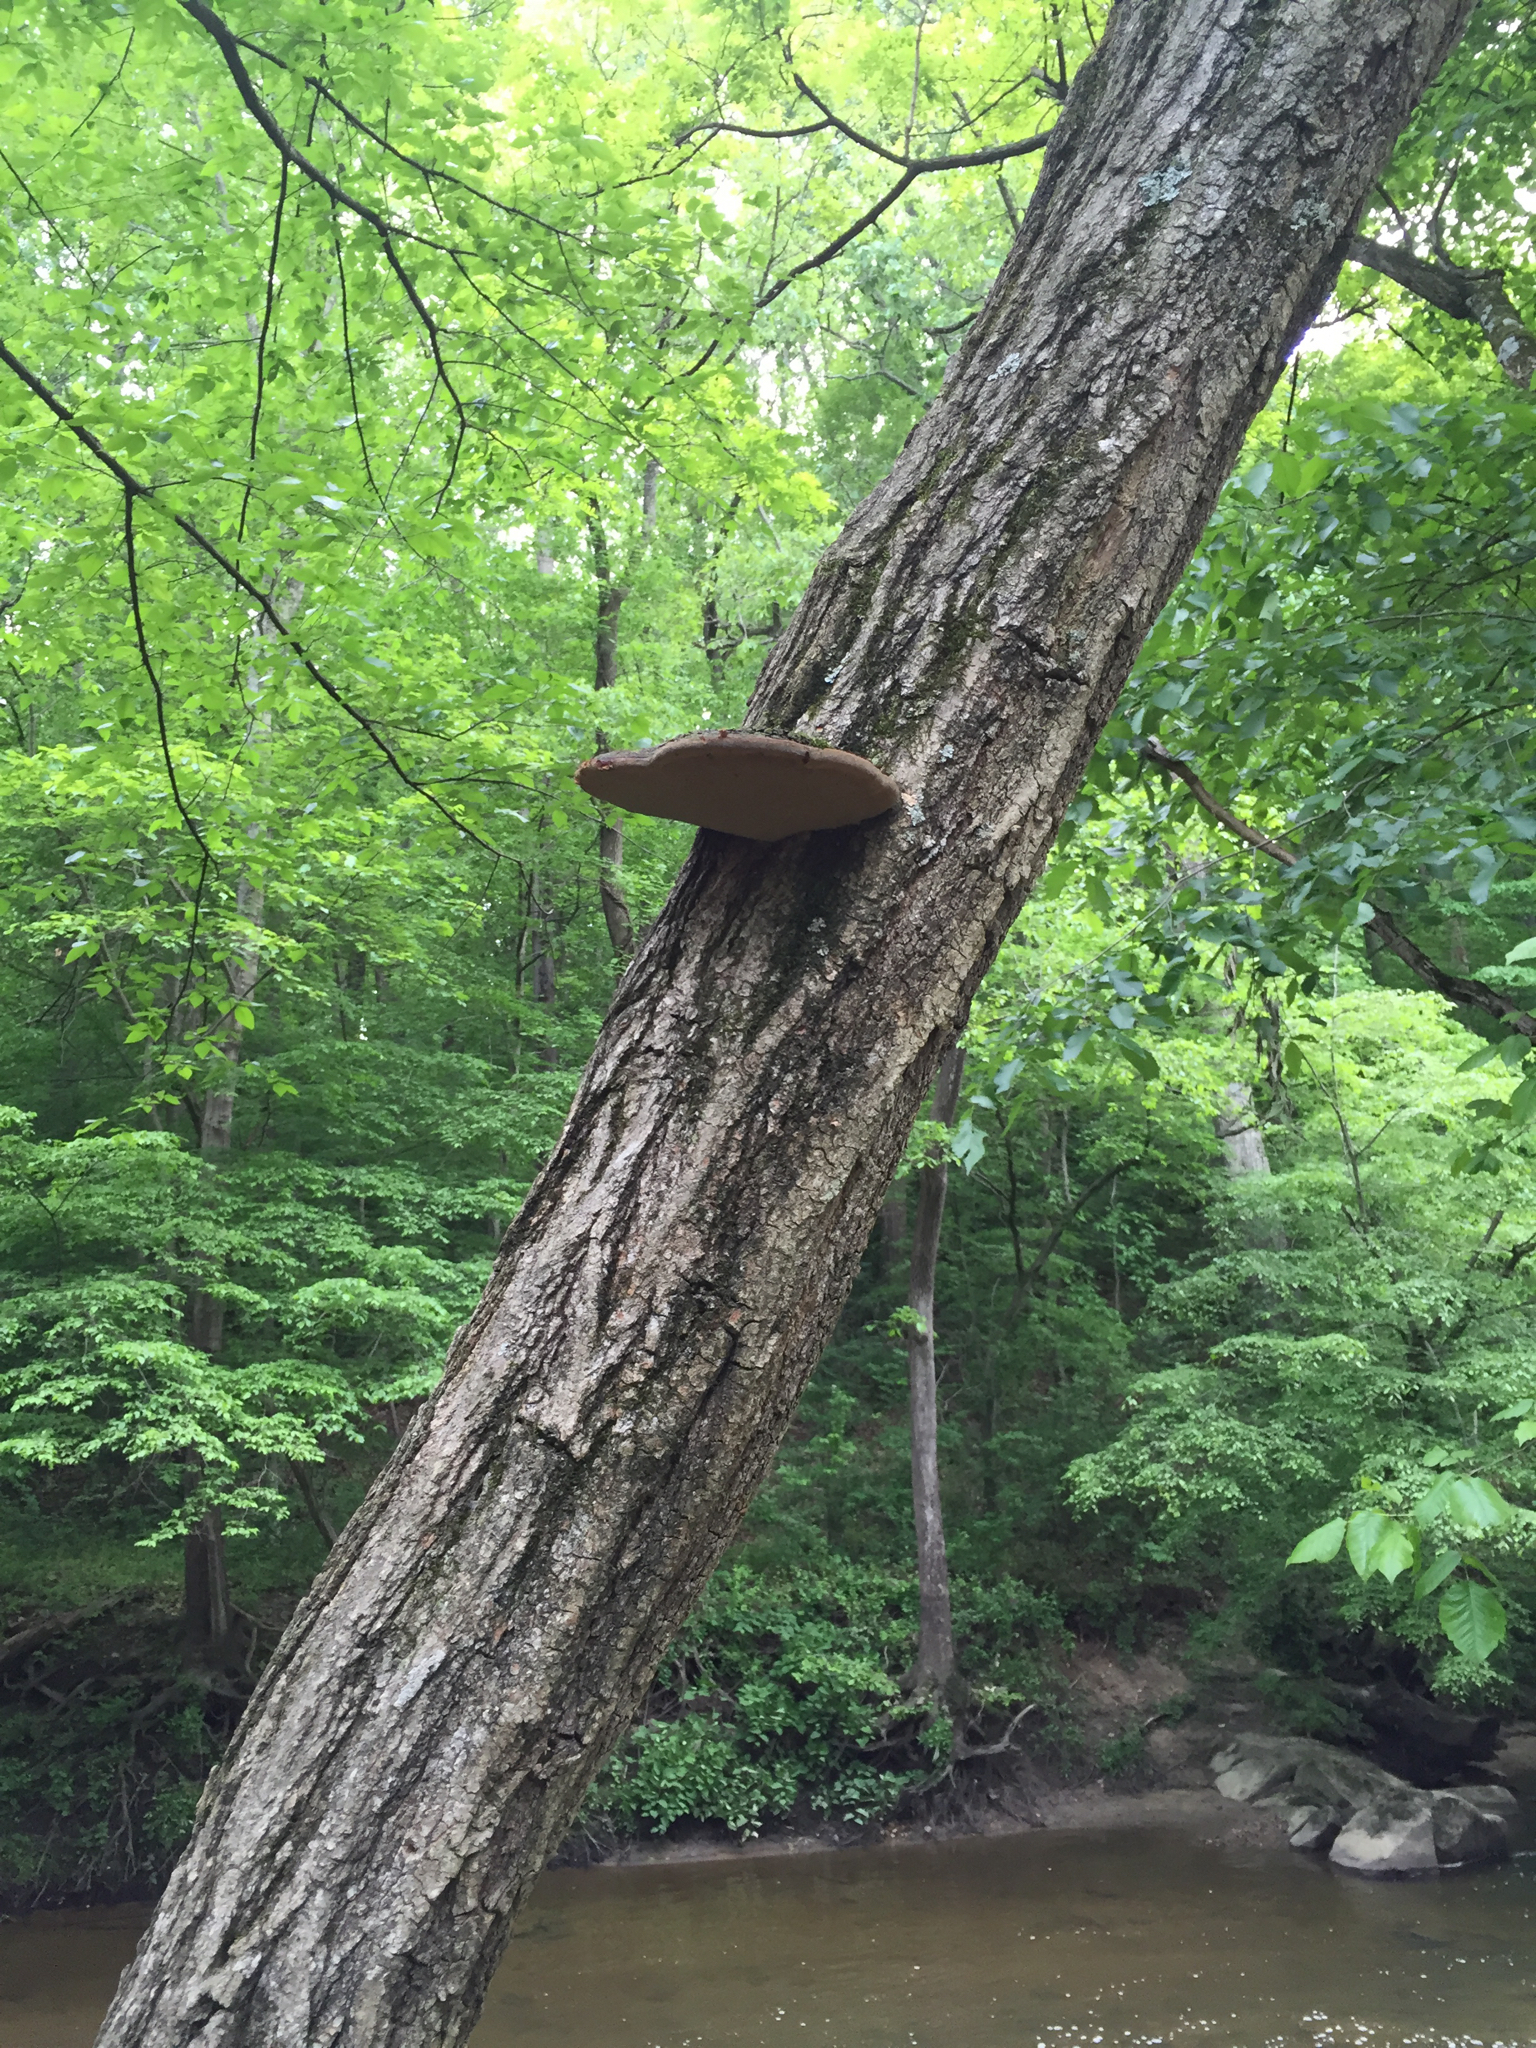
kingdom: Fungi
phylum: Basidiomycota
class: Agaricomycetes
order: Hymenochaetales
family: Hymenochaetaceae
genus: Phellinus
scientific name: Phellinus robiniae
